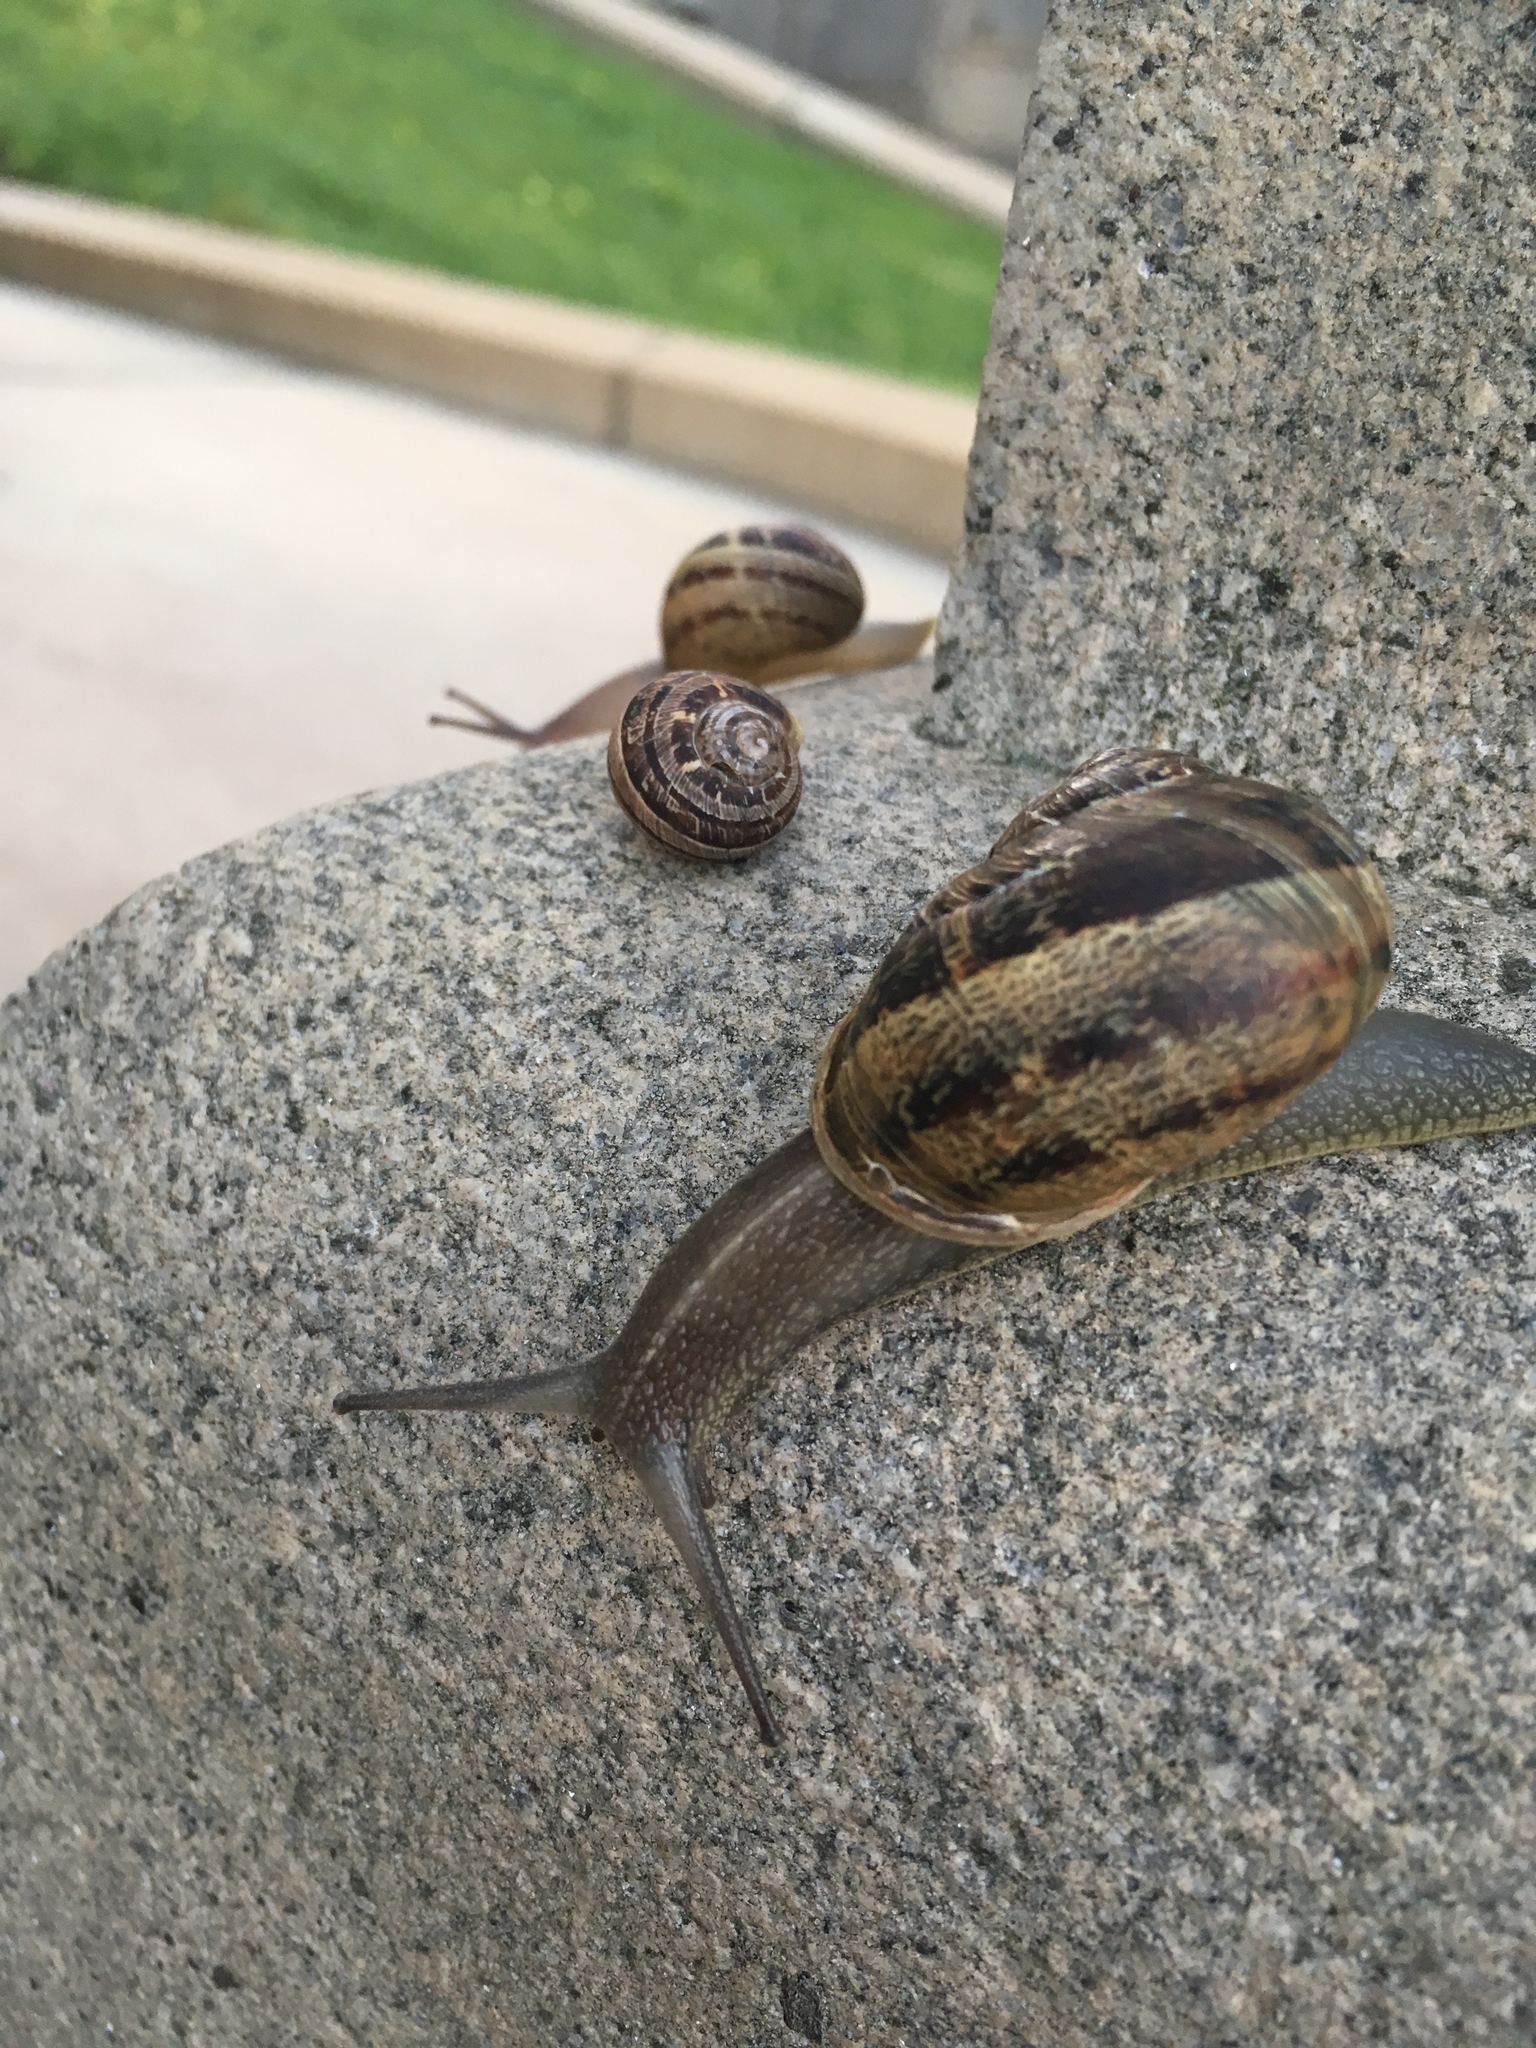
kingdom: Animalia
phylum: Mollusca
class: Gastropoda
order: Stylommatophora
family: Helicidae
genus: Cornu
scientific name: Cornu aspersum
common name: Brown garden snail
